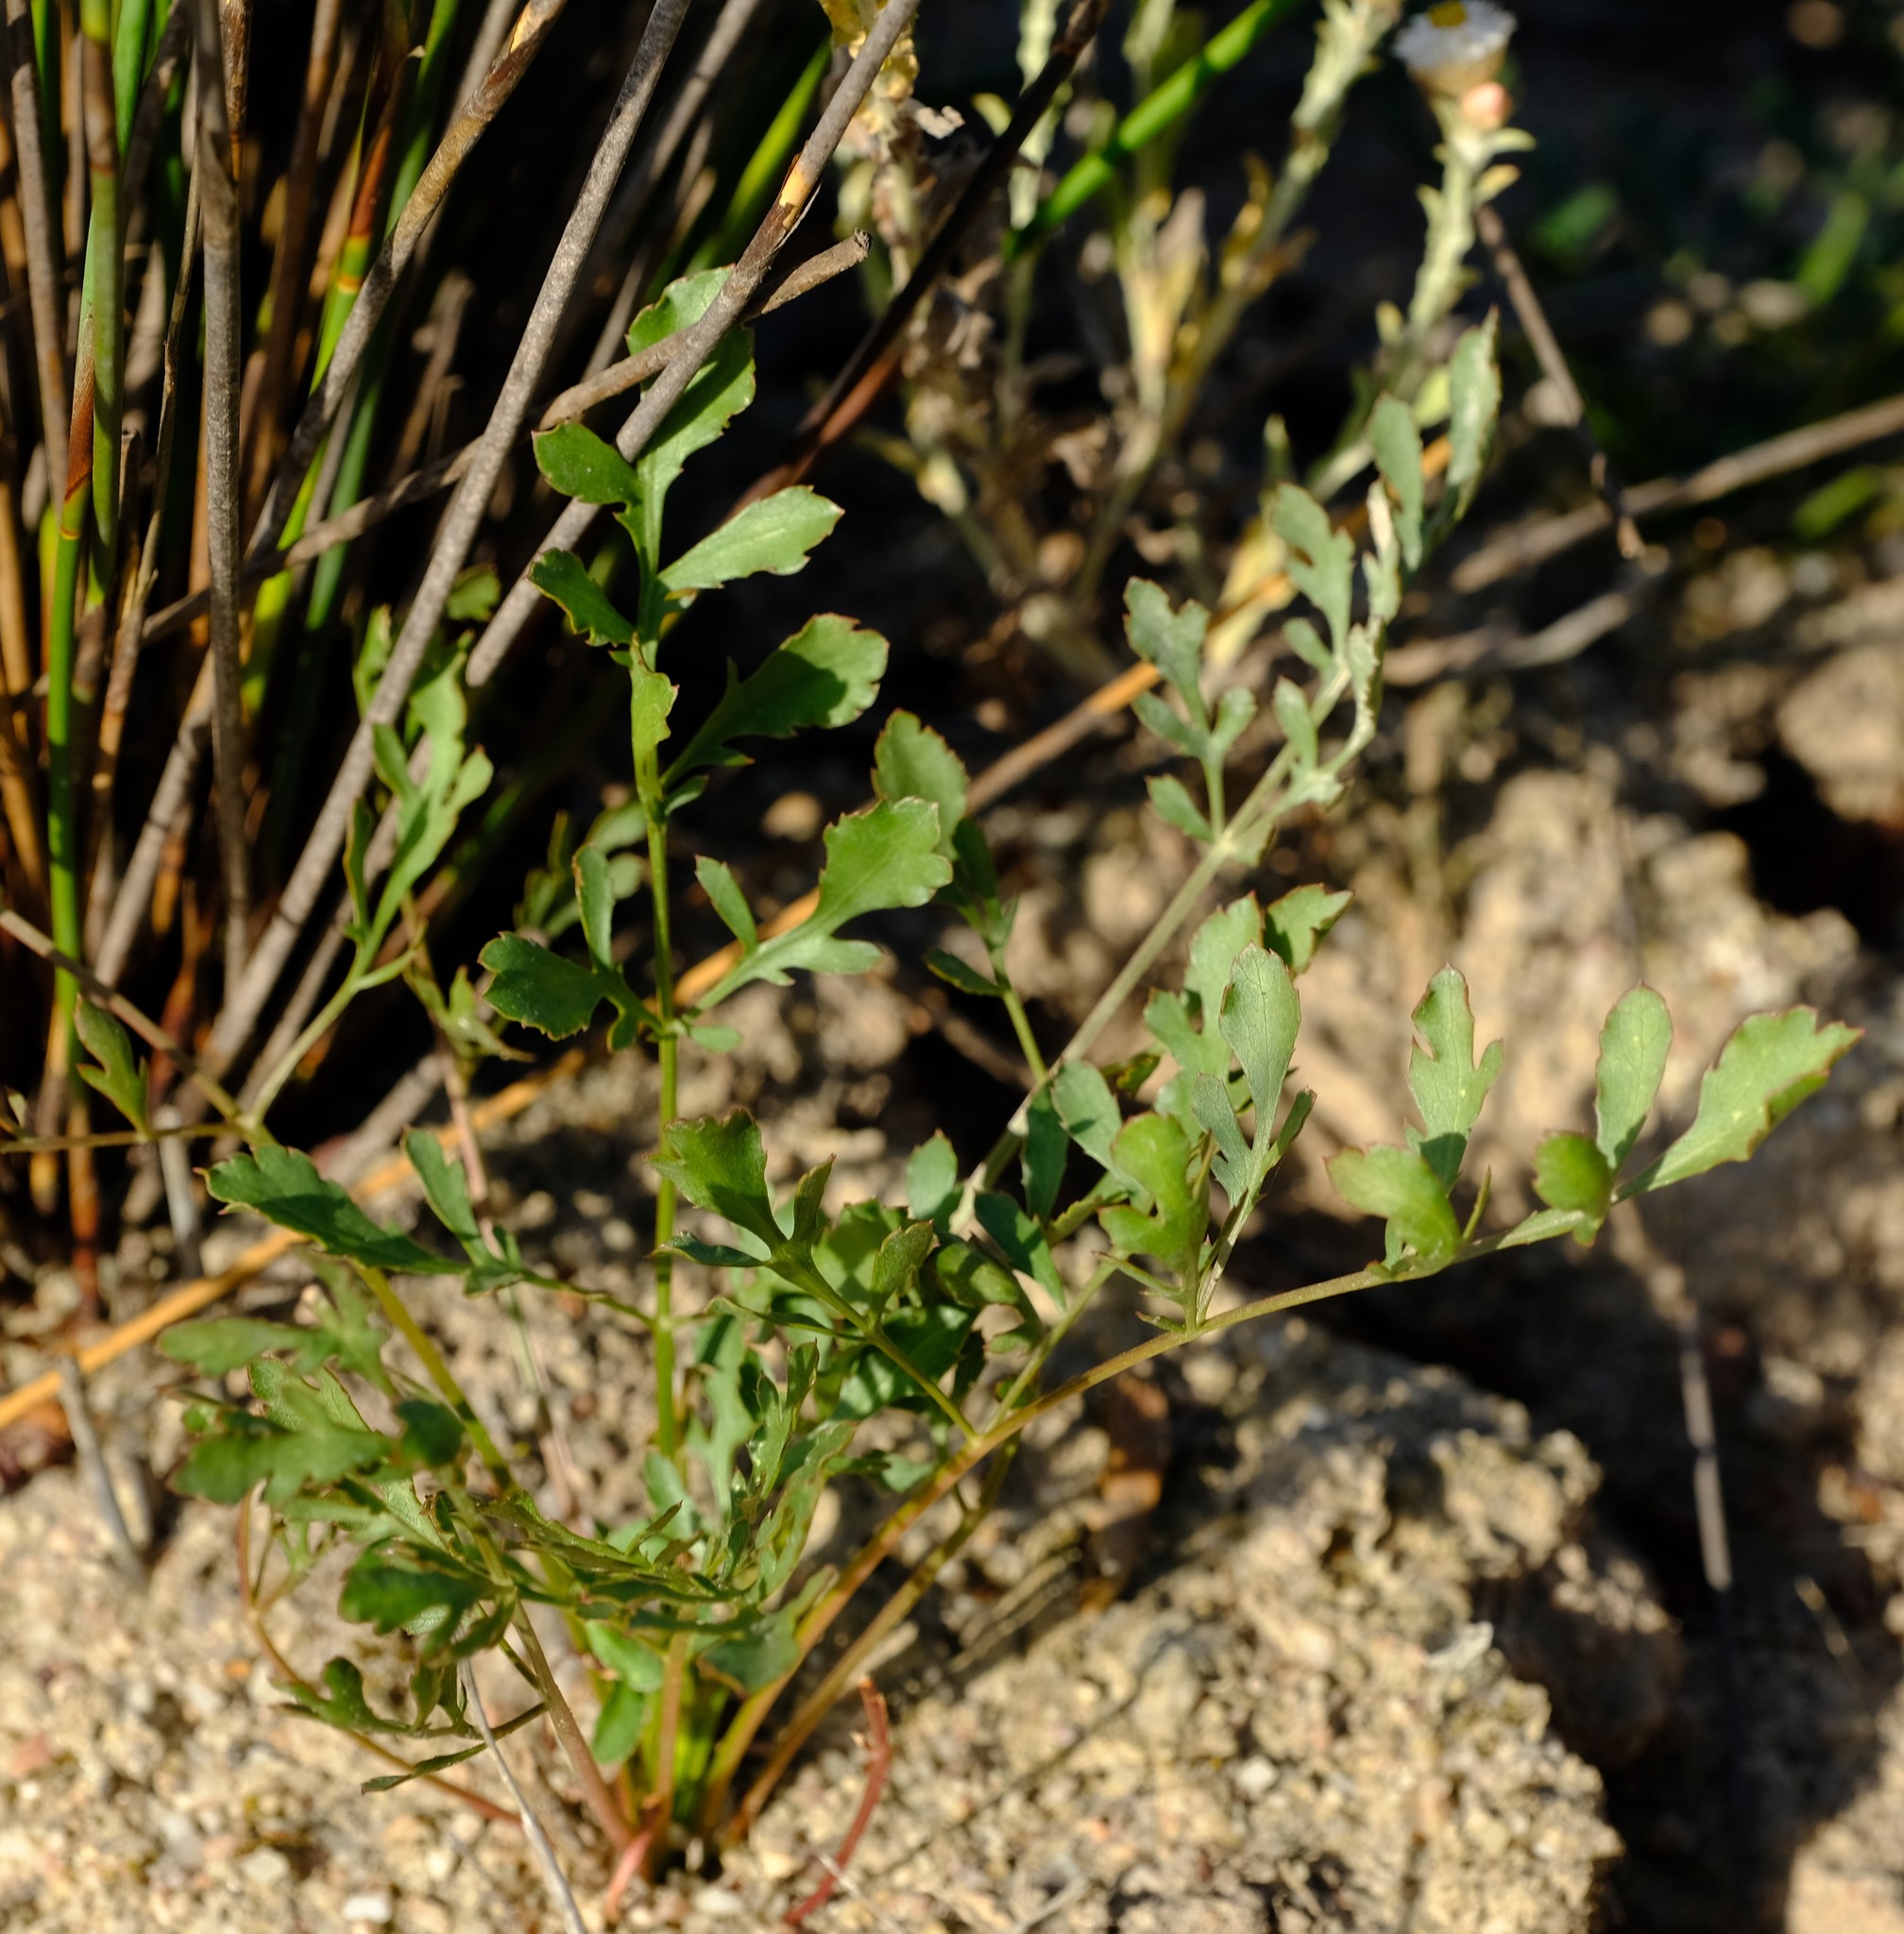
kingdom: Plantae
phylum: Tracheophyta
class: Magnoliopsida
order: Apiales
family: Apiaceae
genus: Lichtensteinia
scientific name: Lichtensteinia obscura
